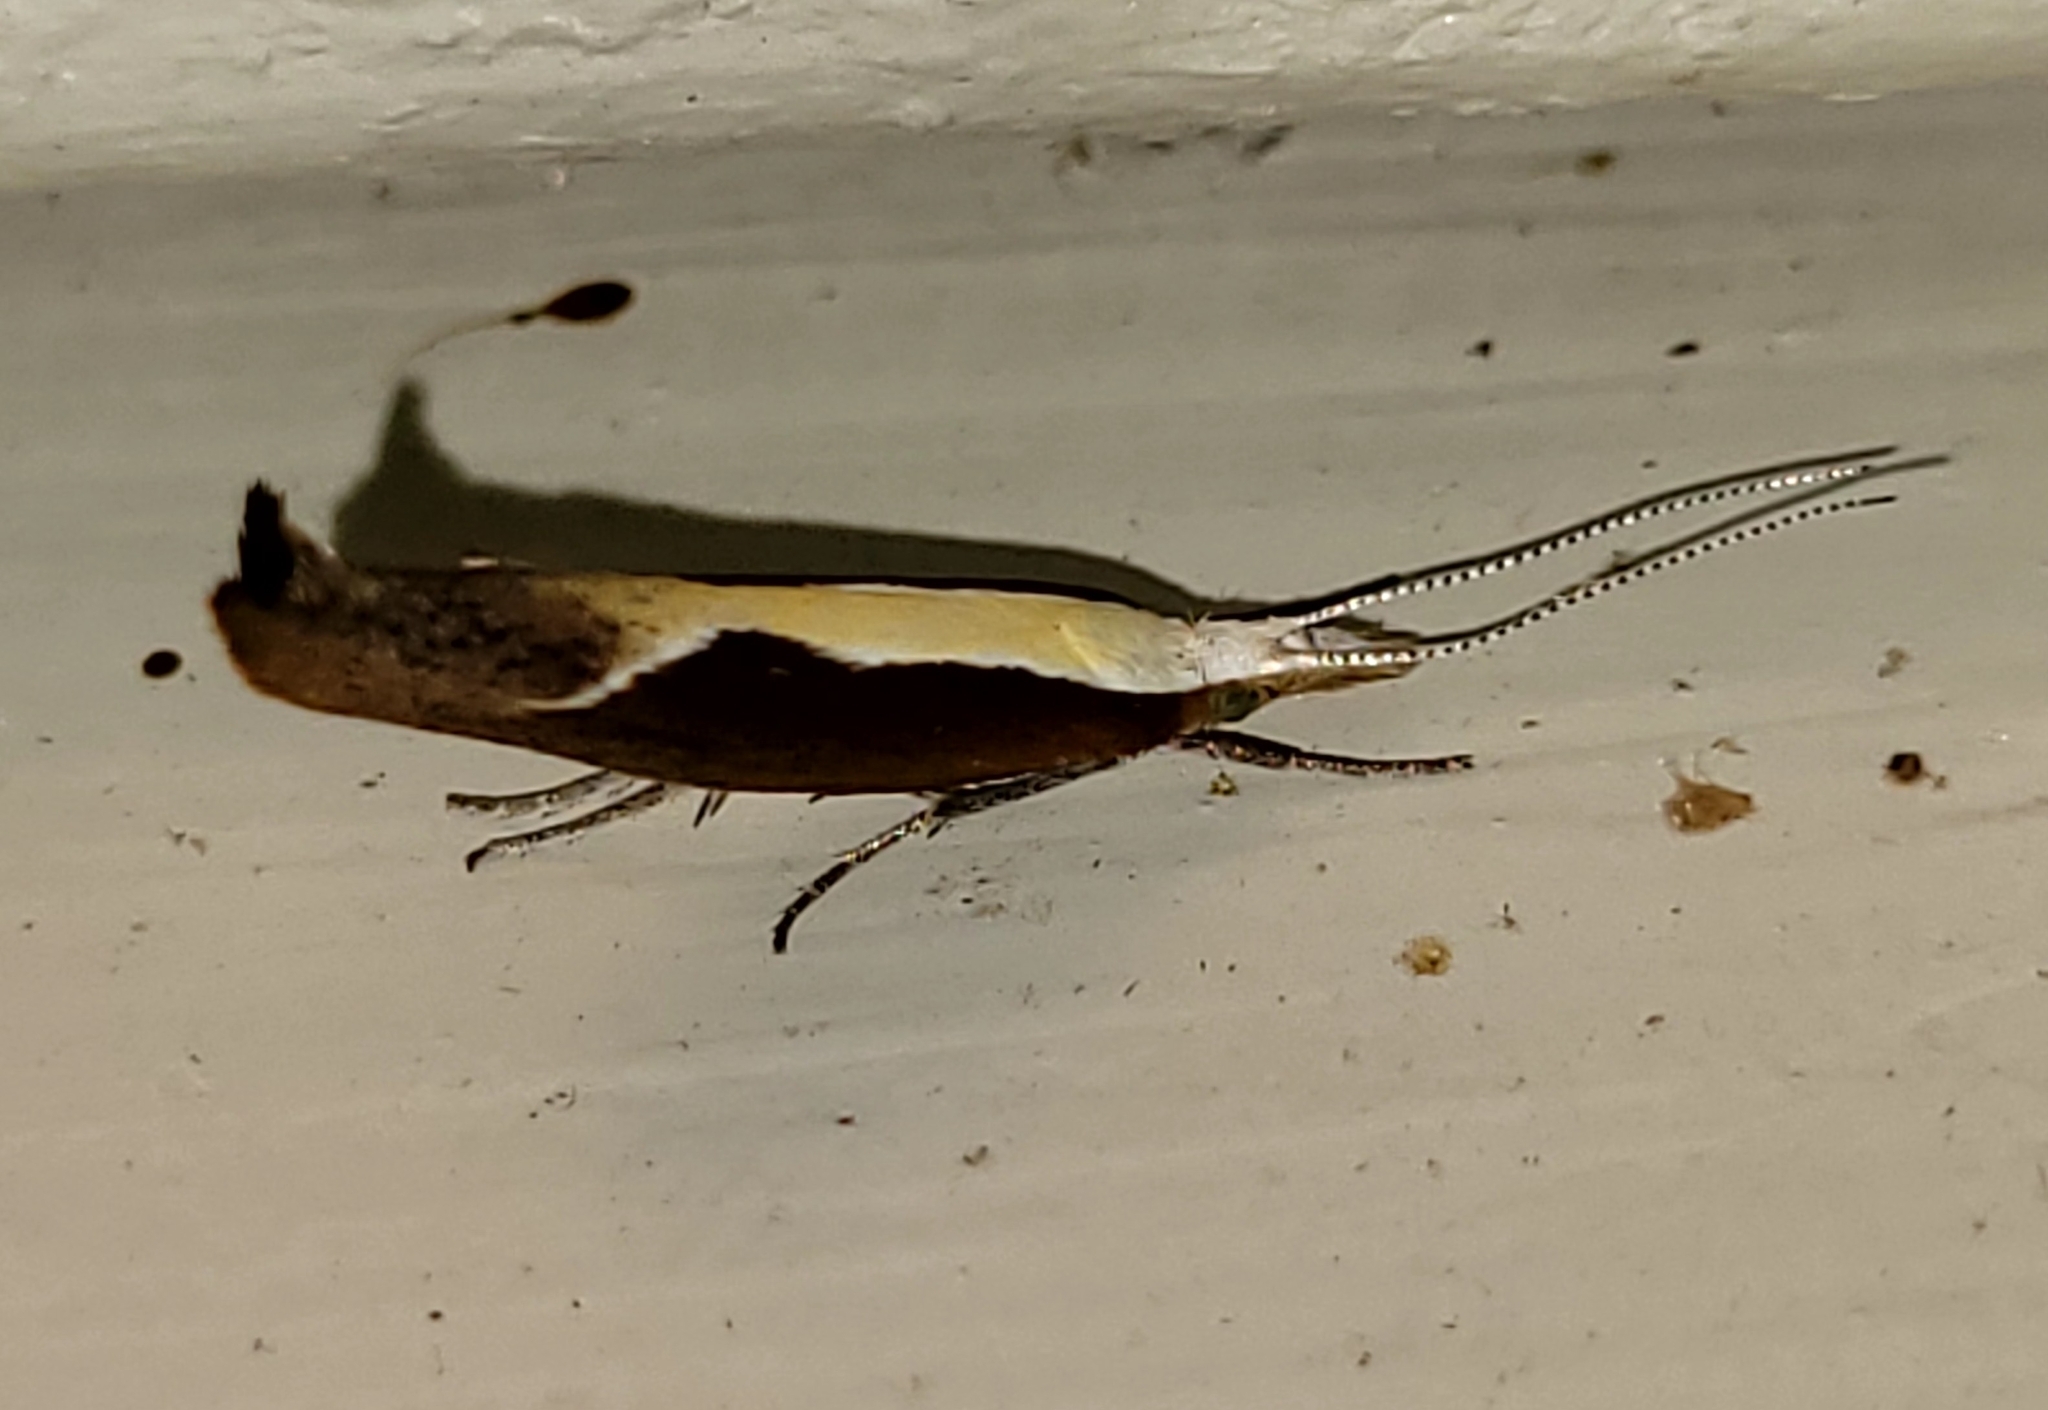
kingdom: Animalia
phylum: Arthropoda
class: Insecta
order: Lepidoptera
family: Ypsolophidae
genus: Ypsolopha
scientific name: Ypsolopha dentella
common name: Honeysuckle moth
